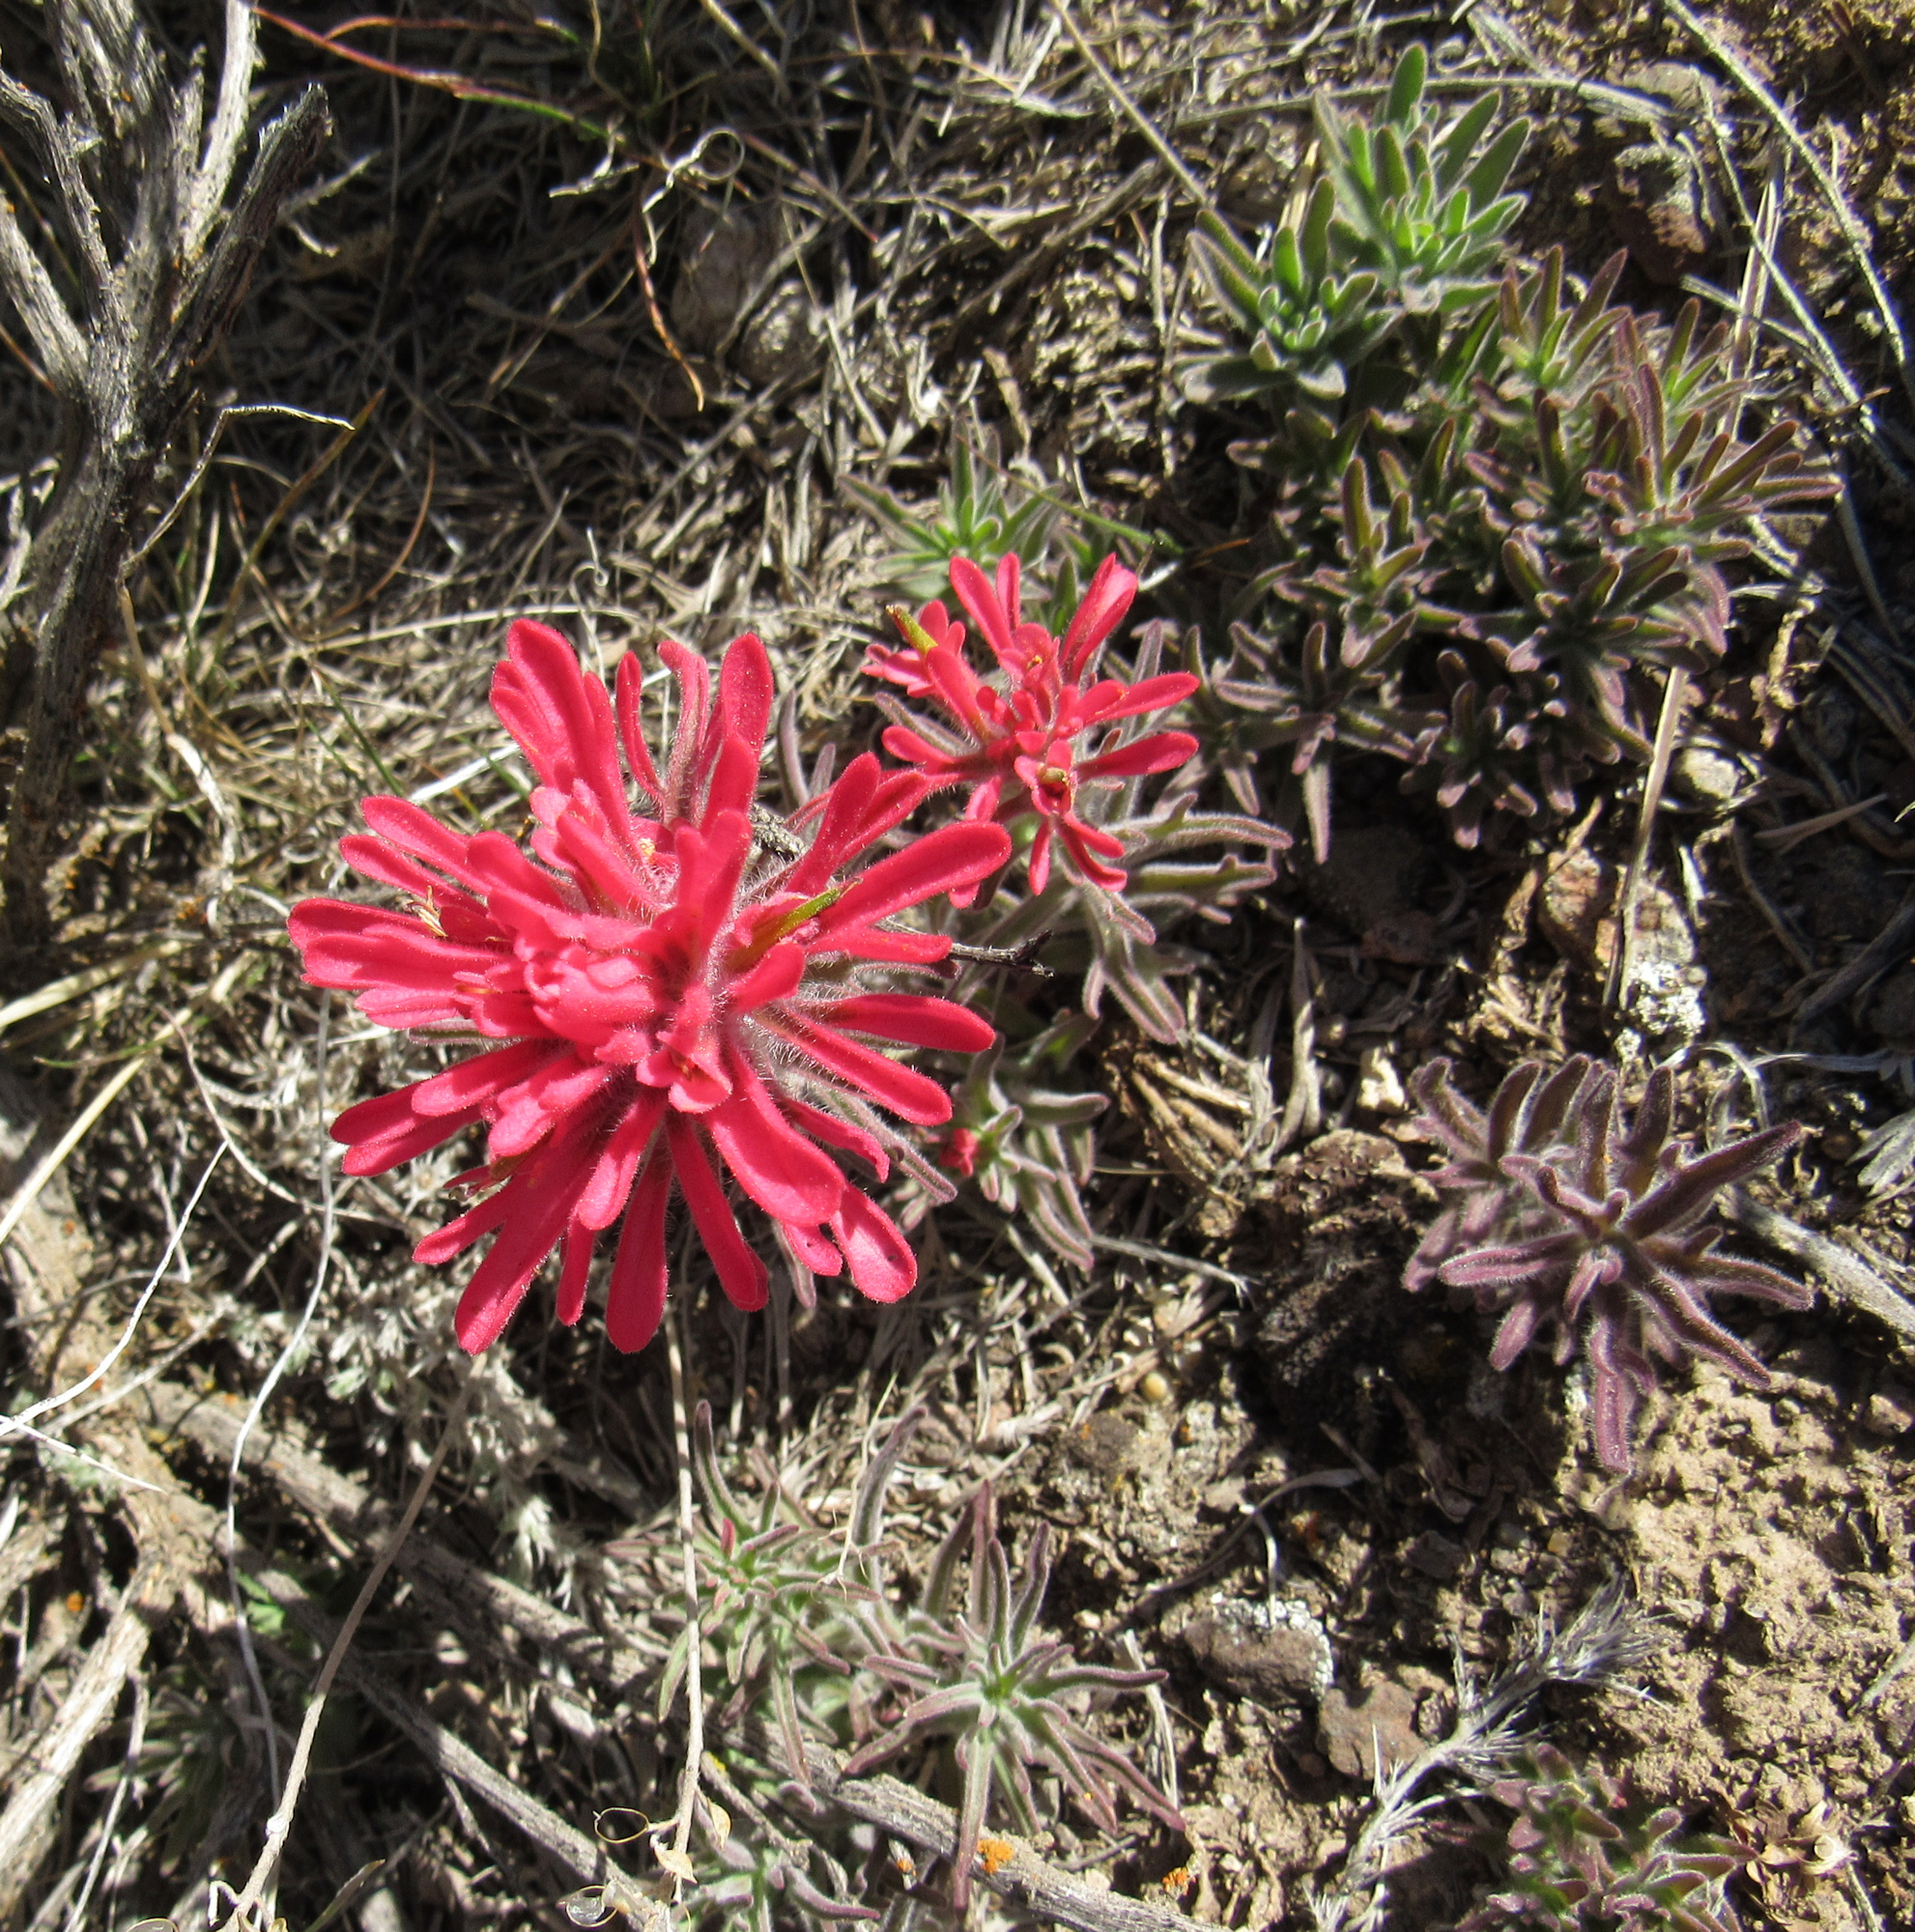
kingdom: Plantae
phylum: Tracheophyta
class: Magnoliopsida
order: Lamiales
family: Orobanchaceae
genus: Castilleja
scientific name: Castilleja chromosa
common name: Desert paintbrush
